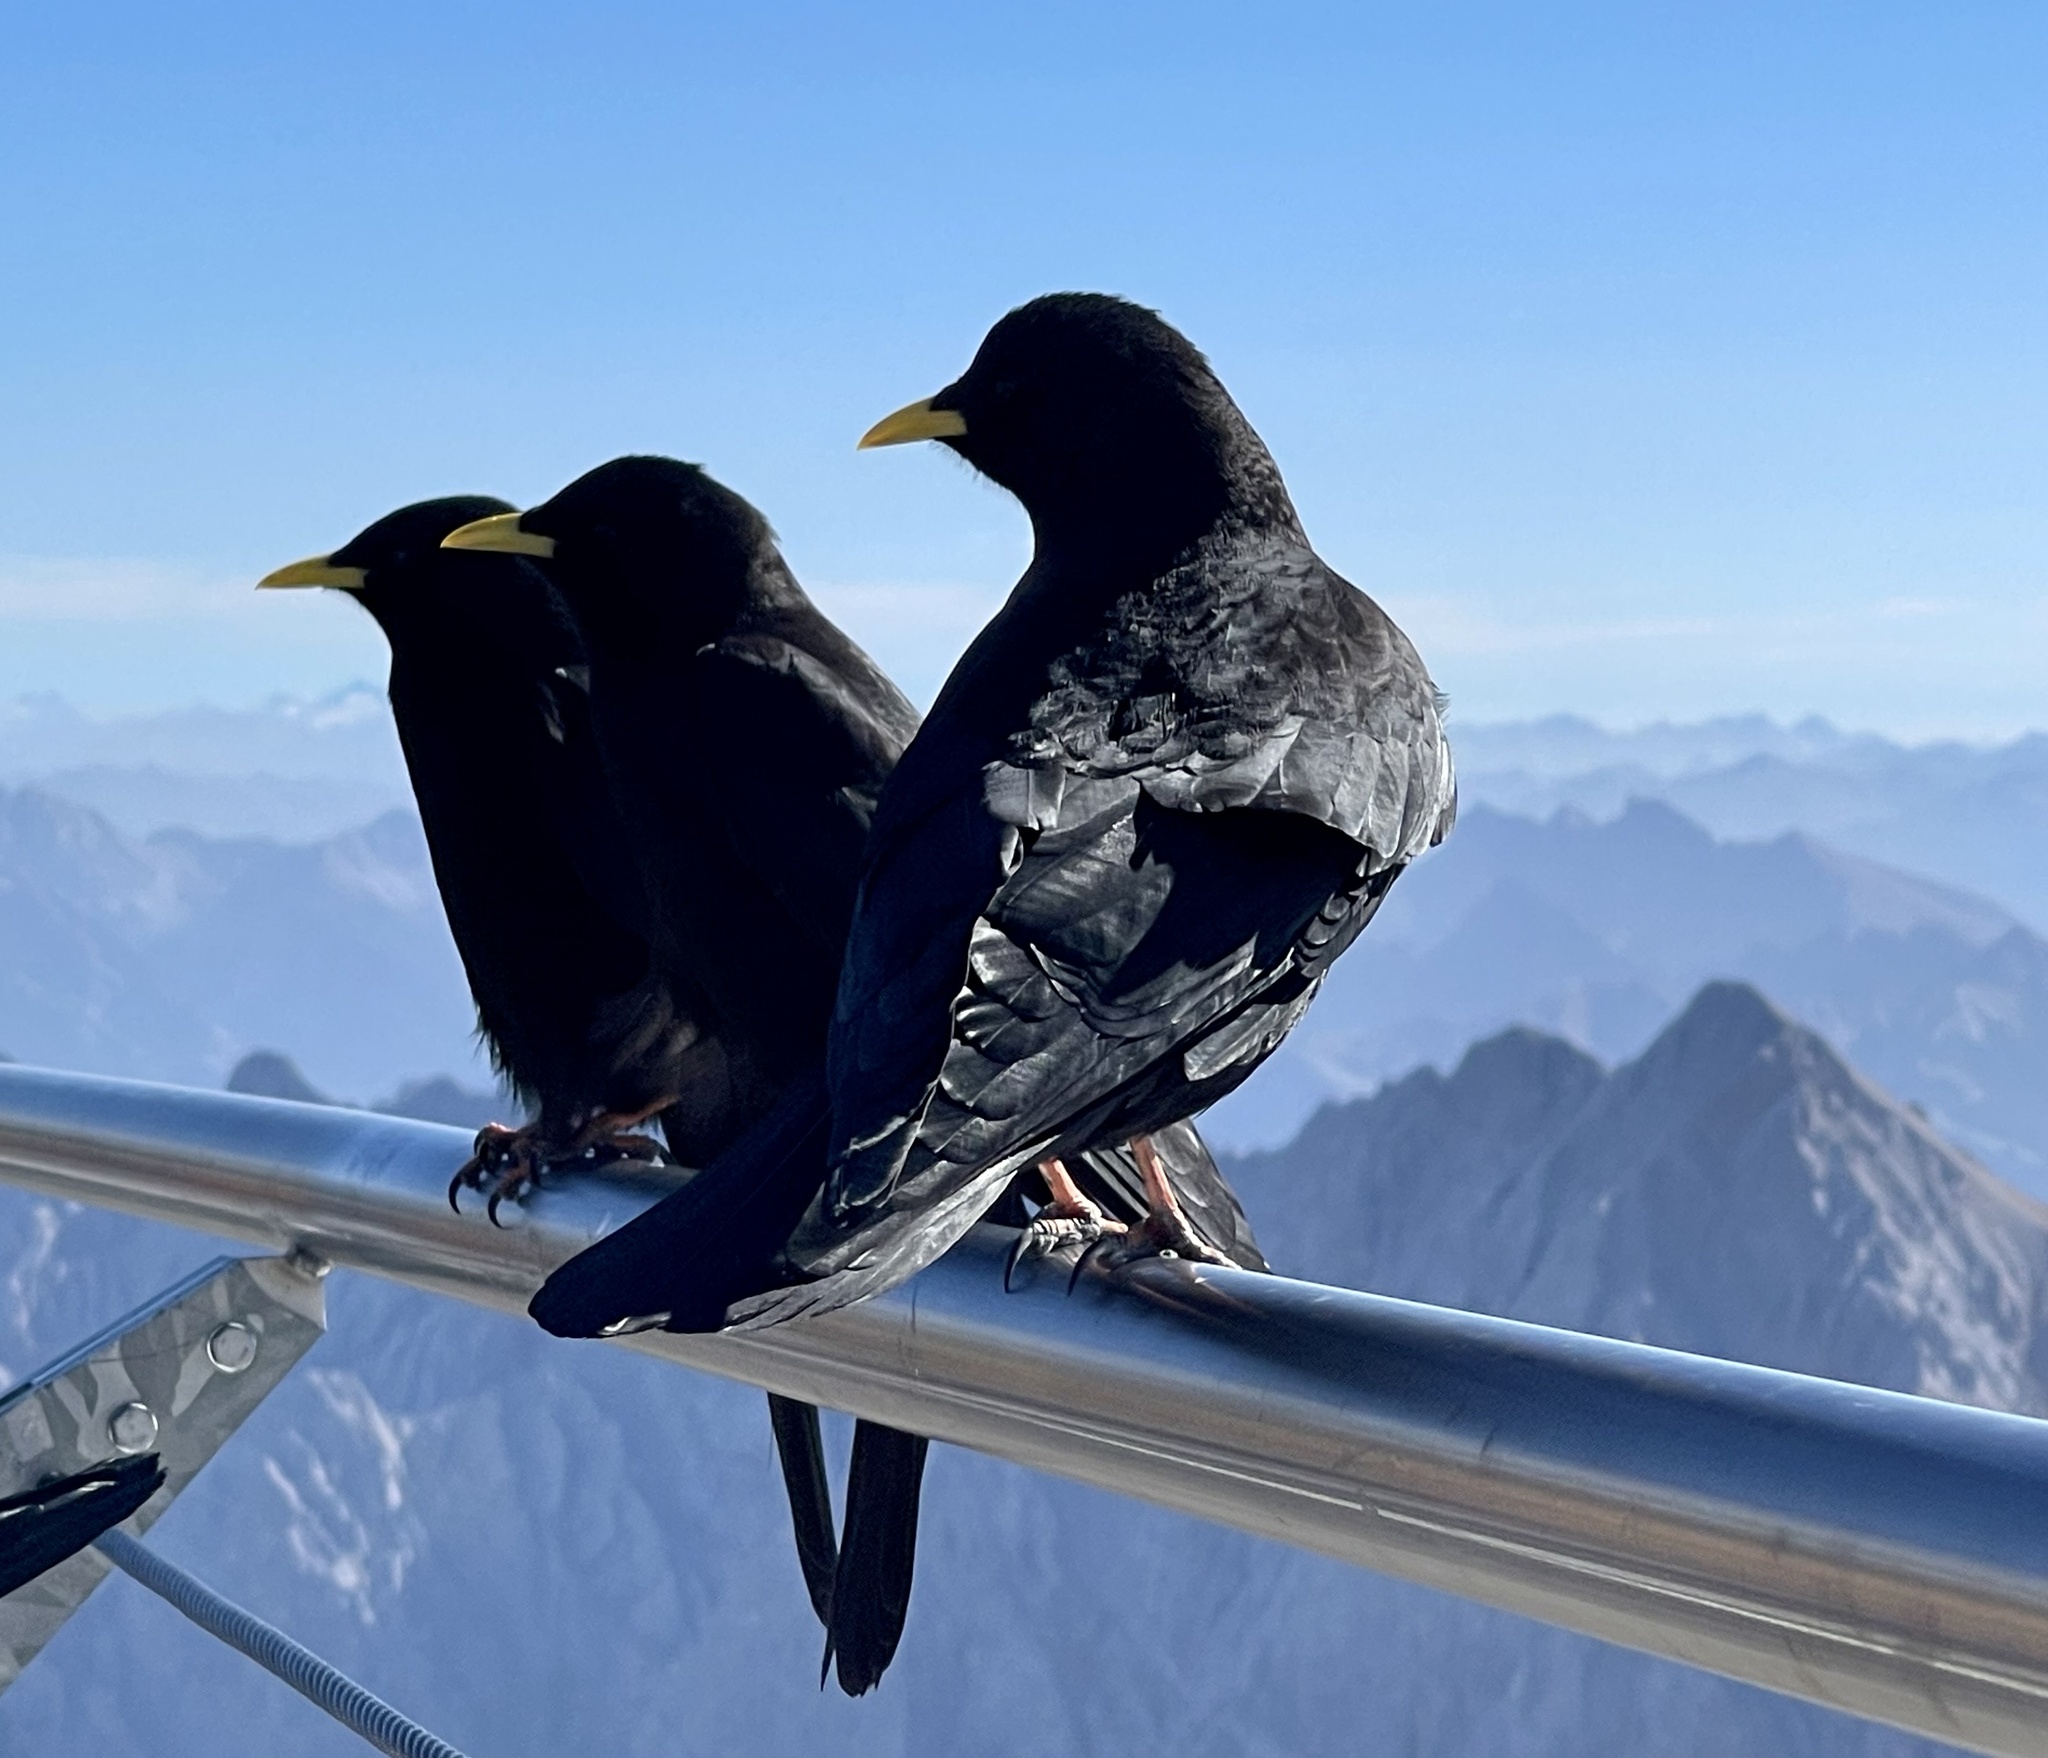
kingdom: Animalia
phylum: Chordata
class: Aves
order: Passeriformes
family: Corvidae
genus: Pyrrhocorax
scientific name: Pyrrhocorax graculus
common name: Alpine chough
